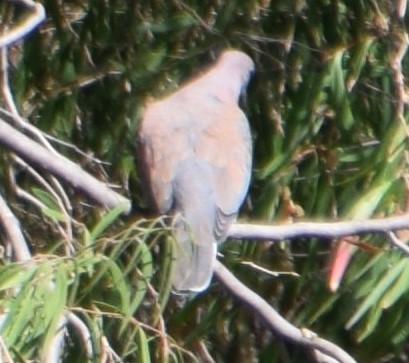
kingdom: Animalia
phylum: Chordata
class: Aves
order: Columbiformes
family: Columbidae
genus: Spilopelia
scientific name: Spilopelia senegalensis
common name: Laughing dove
